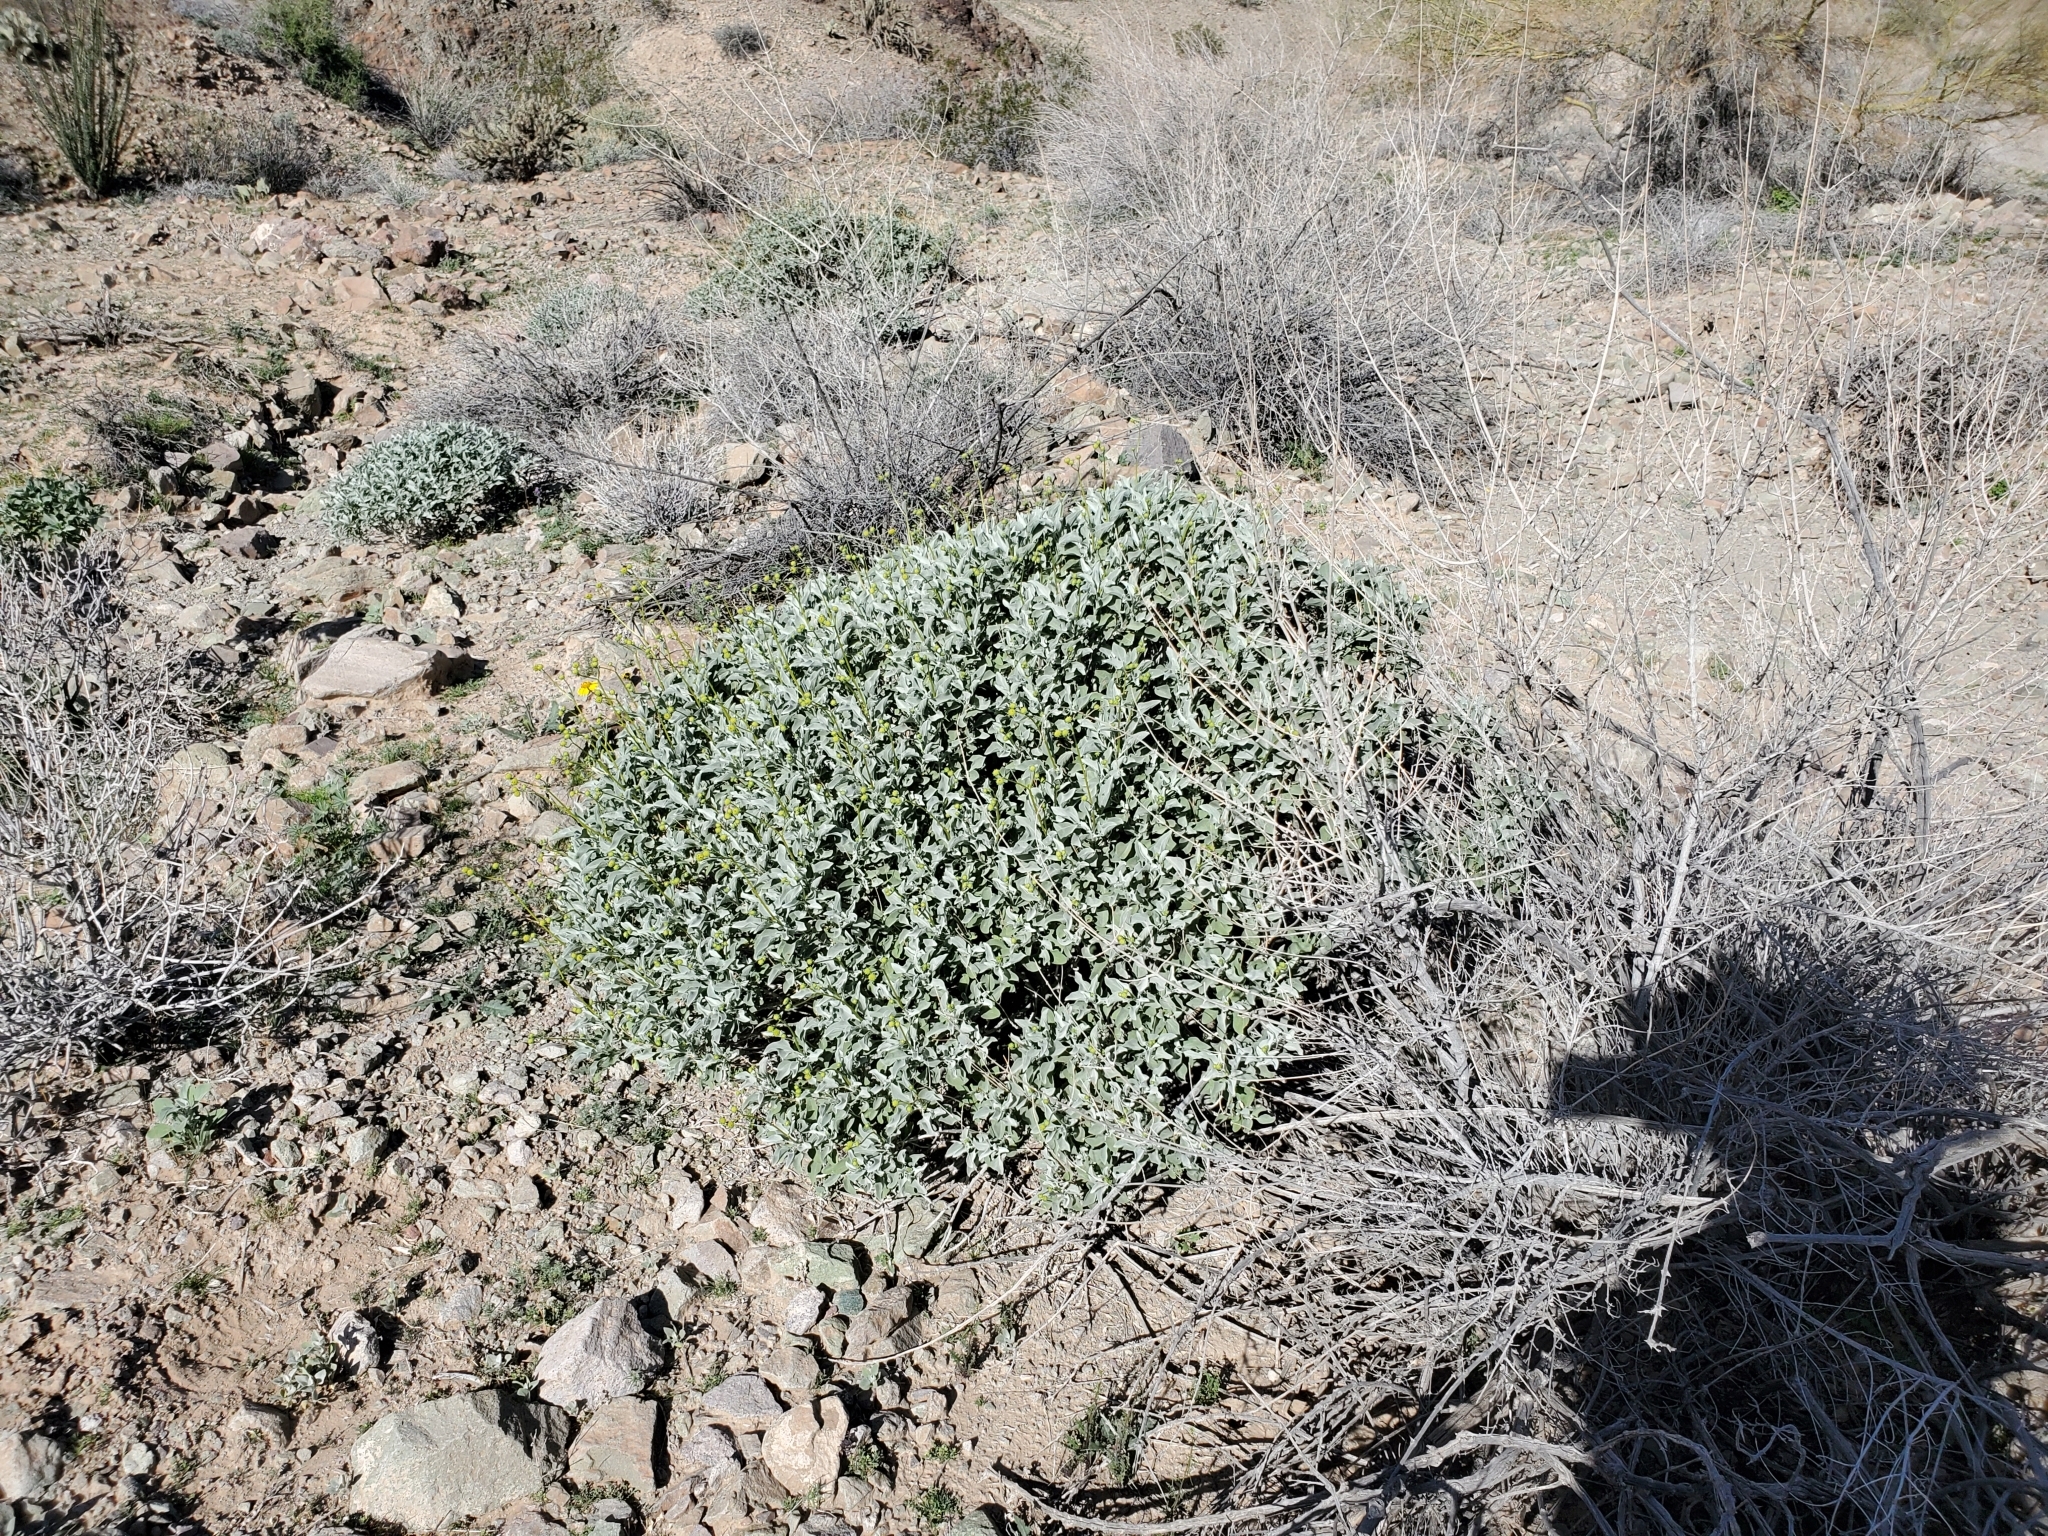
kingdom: Plantae
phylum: Tracheophyta
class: Magnoliopsida
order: Asterales
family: Asteraceae
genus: Encelia
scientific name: Encelia farinosa
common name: Brittlebush
